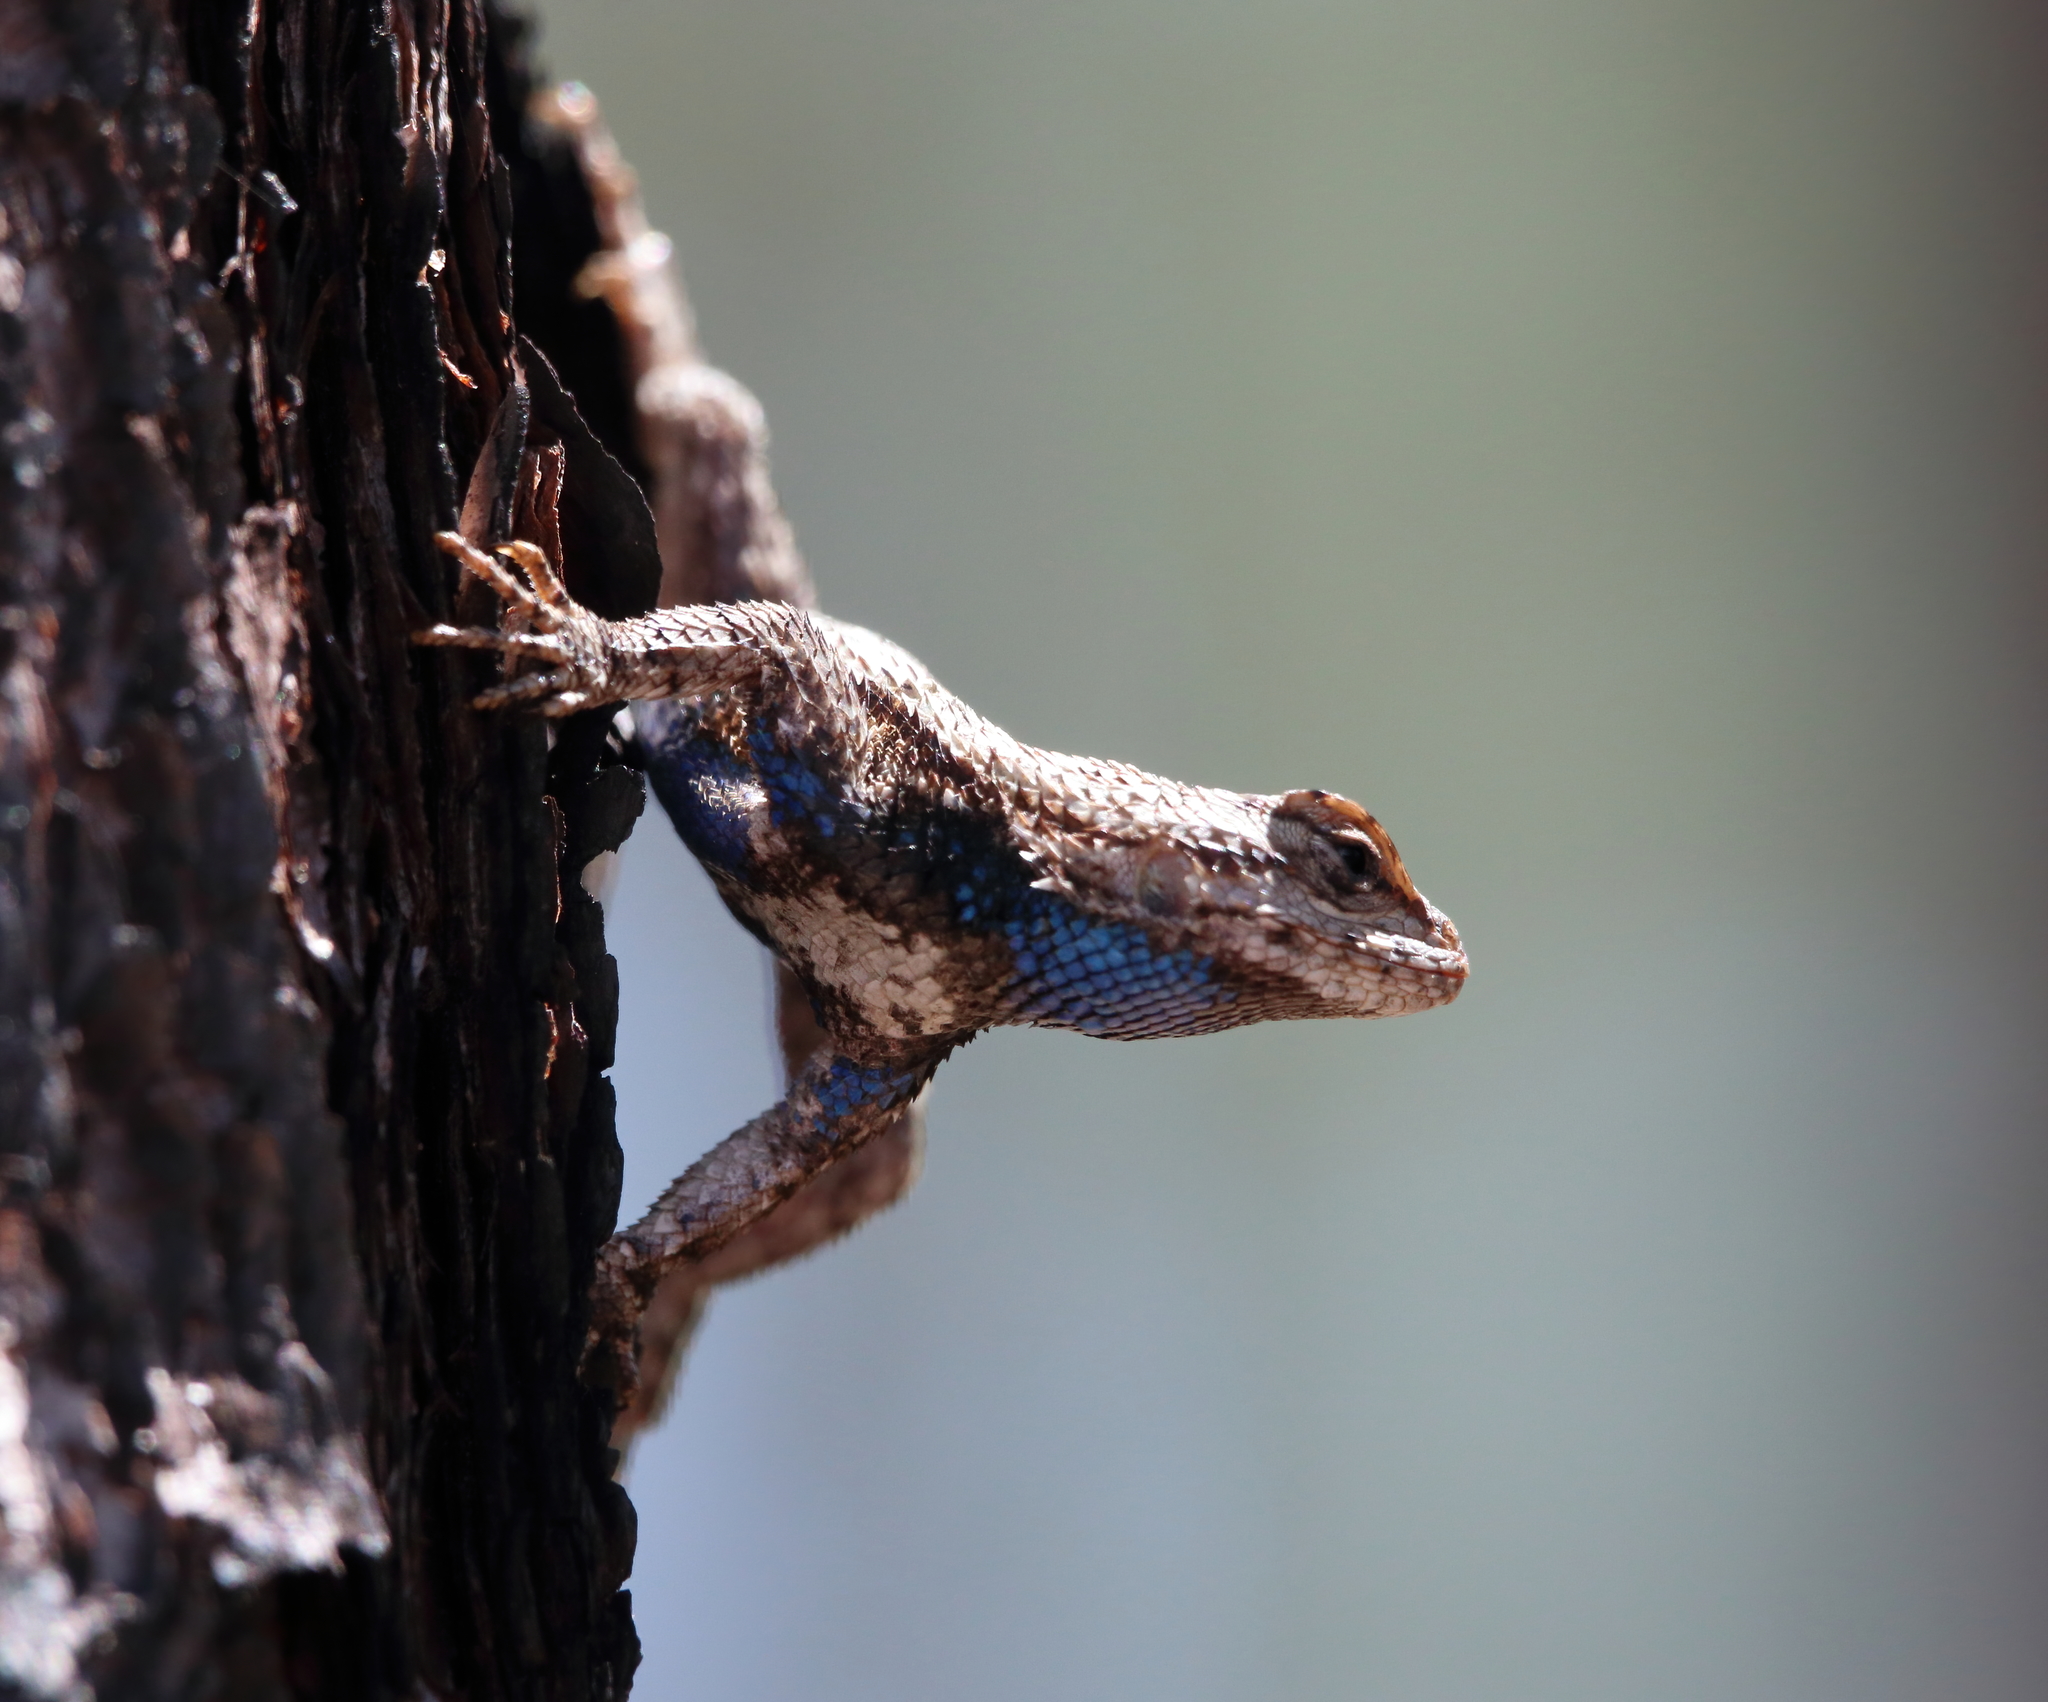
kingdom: Animalia
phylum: Chordata
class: Squamata
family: Phrynosomatidae
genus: Sceloporus
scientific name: Sceloporus undulatus
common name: Eastern fence lizard
